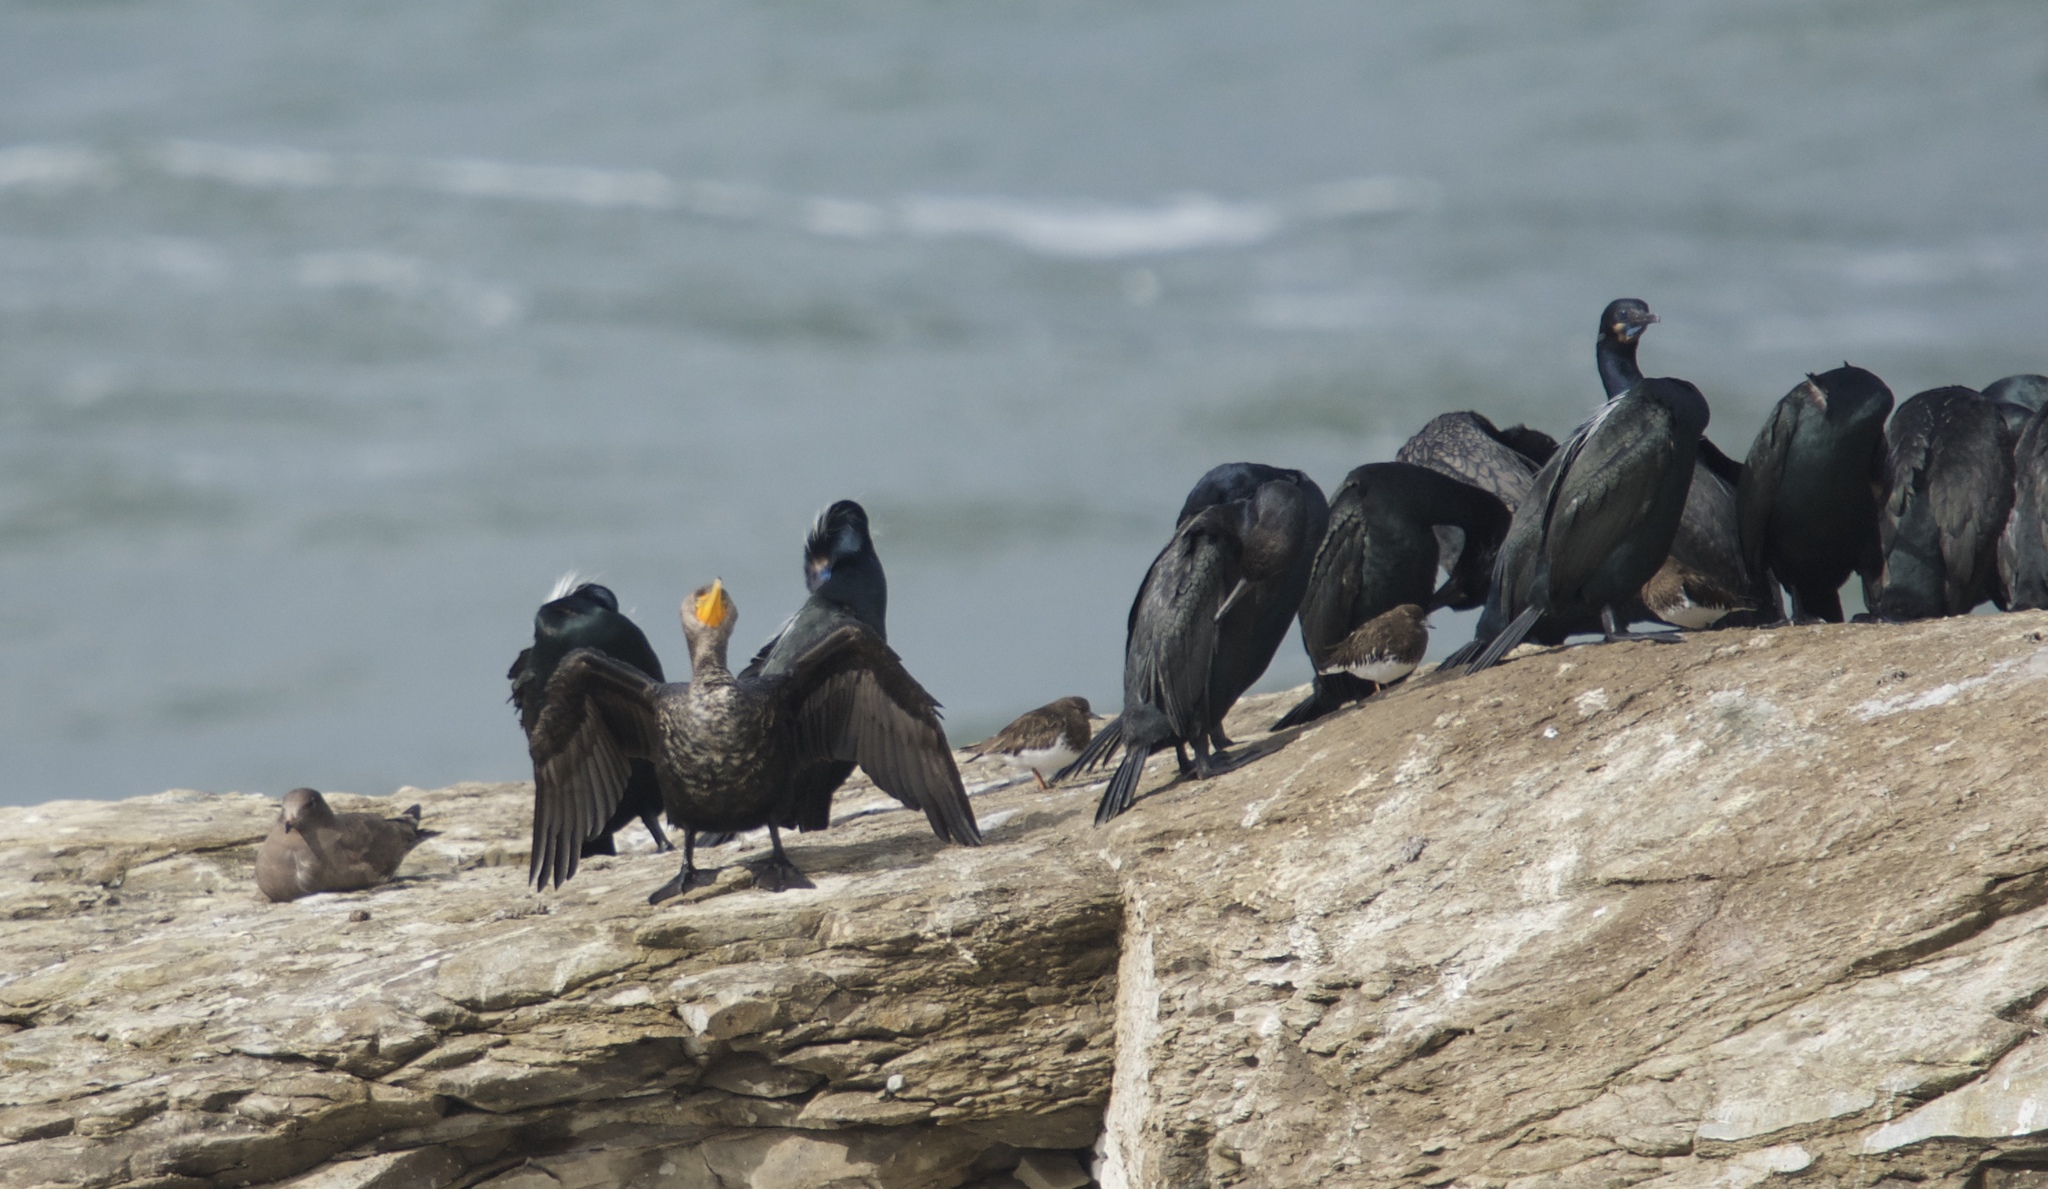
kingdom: Animalia
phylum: Chordata
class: Aves
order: Suliformes
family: Phalacrocoracidae
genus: Phalacrocorax
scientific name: Phalacrocorax auritus
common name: Double-crested cormorant
